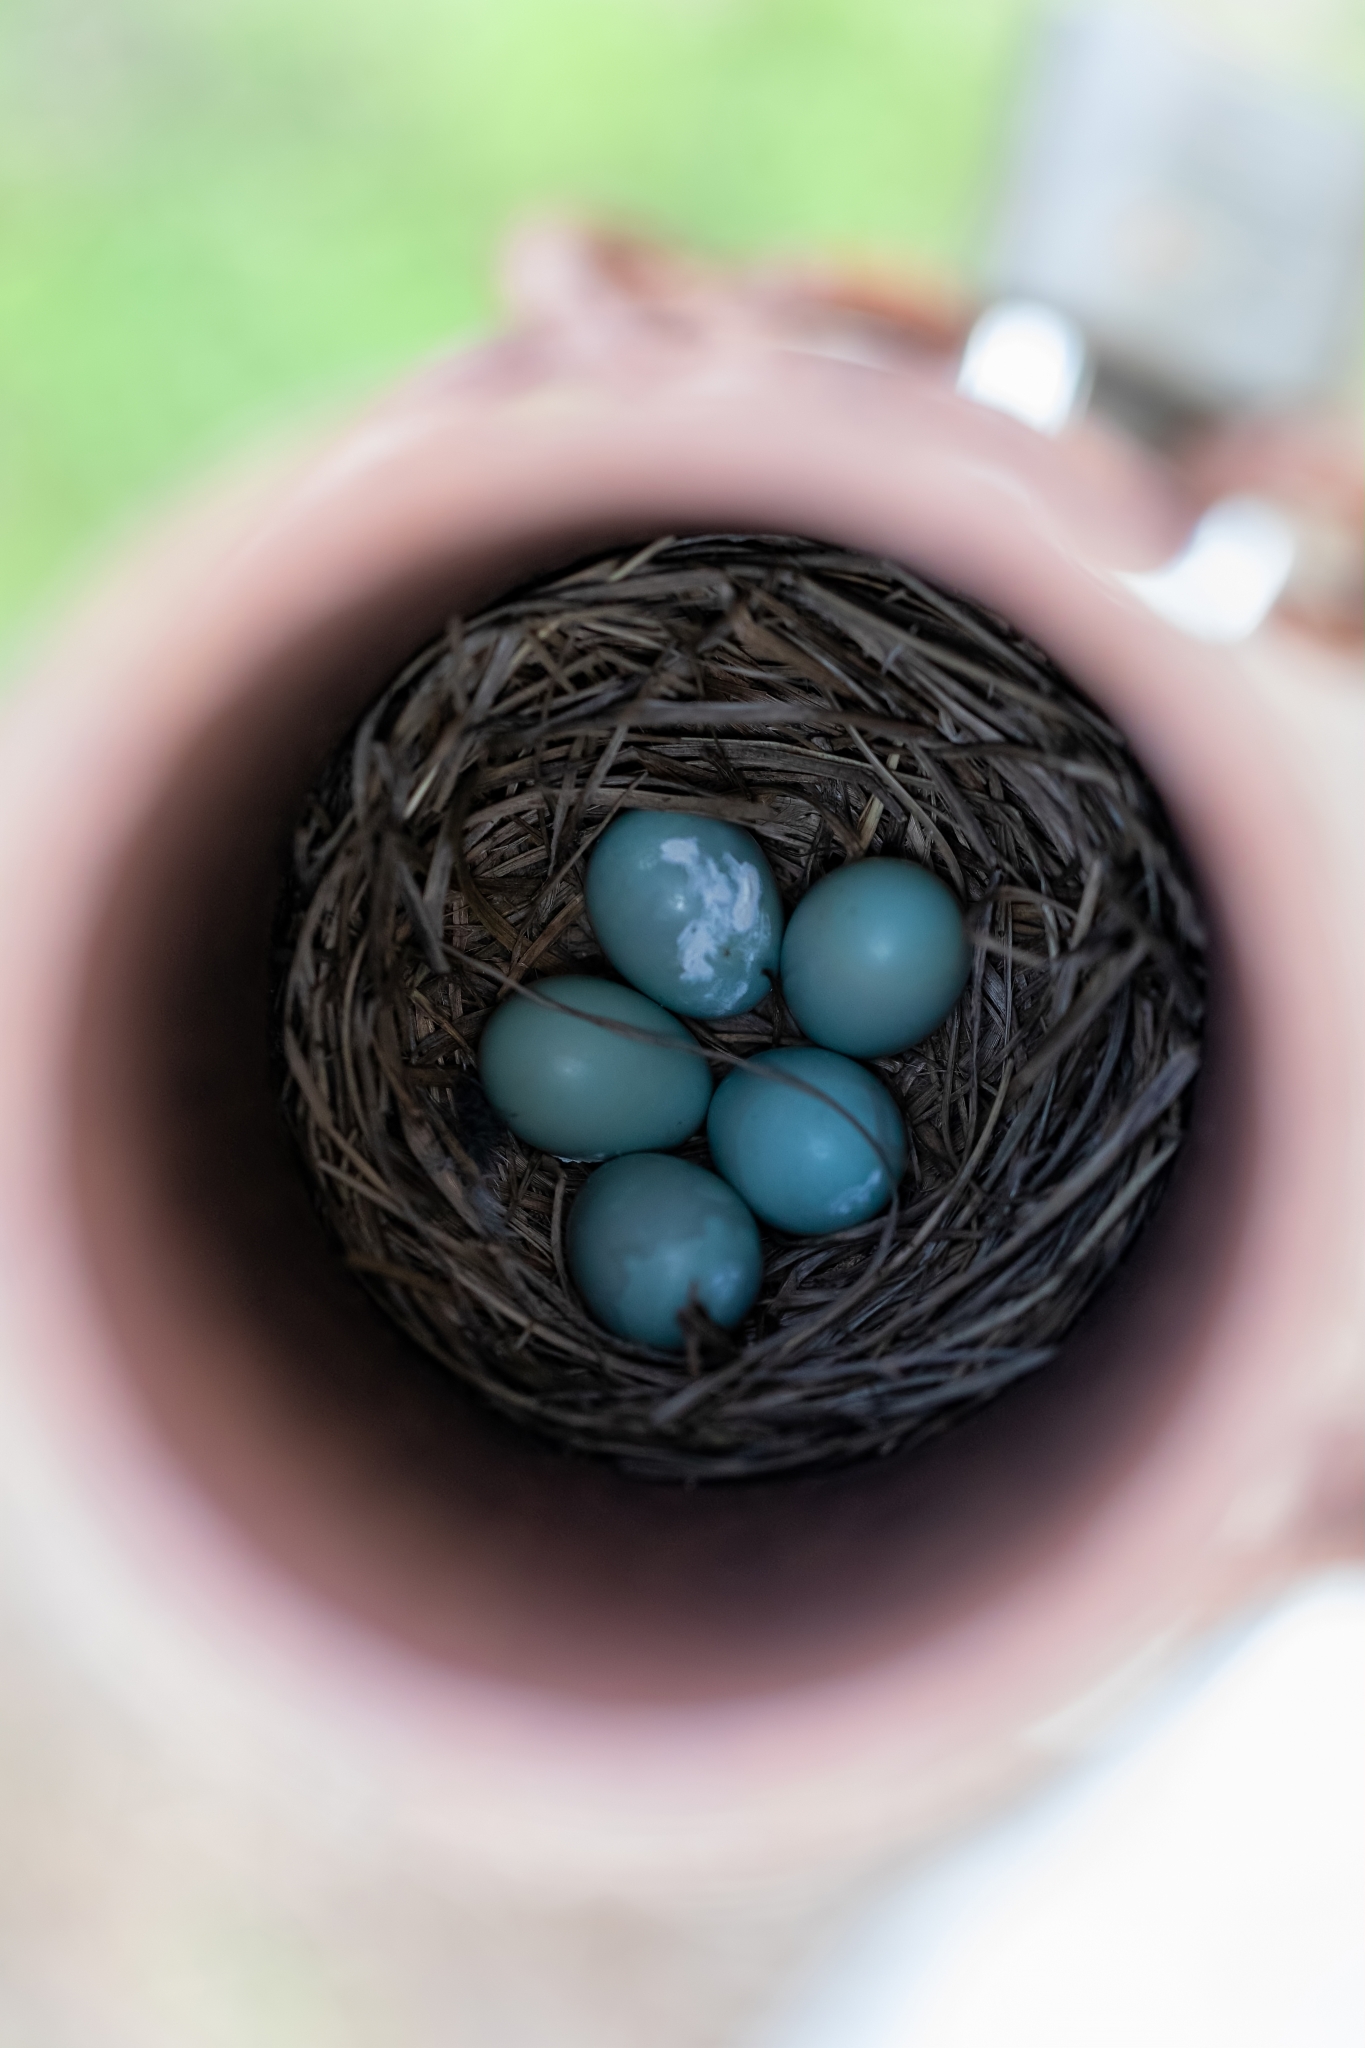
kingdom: Animalia
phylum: Chordata
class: Aves
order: Passeriformes
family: Turdidae
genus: Sialia
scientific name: Sialia sialis
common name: Eastern bluebird
